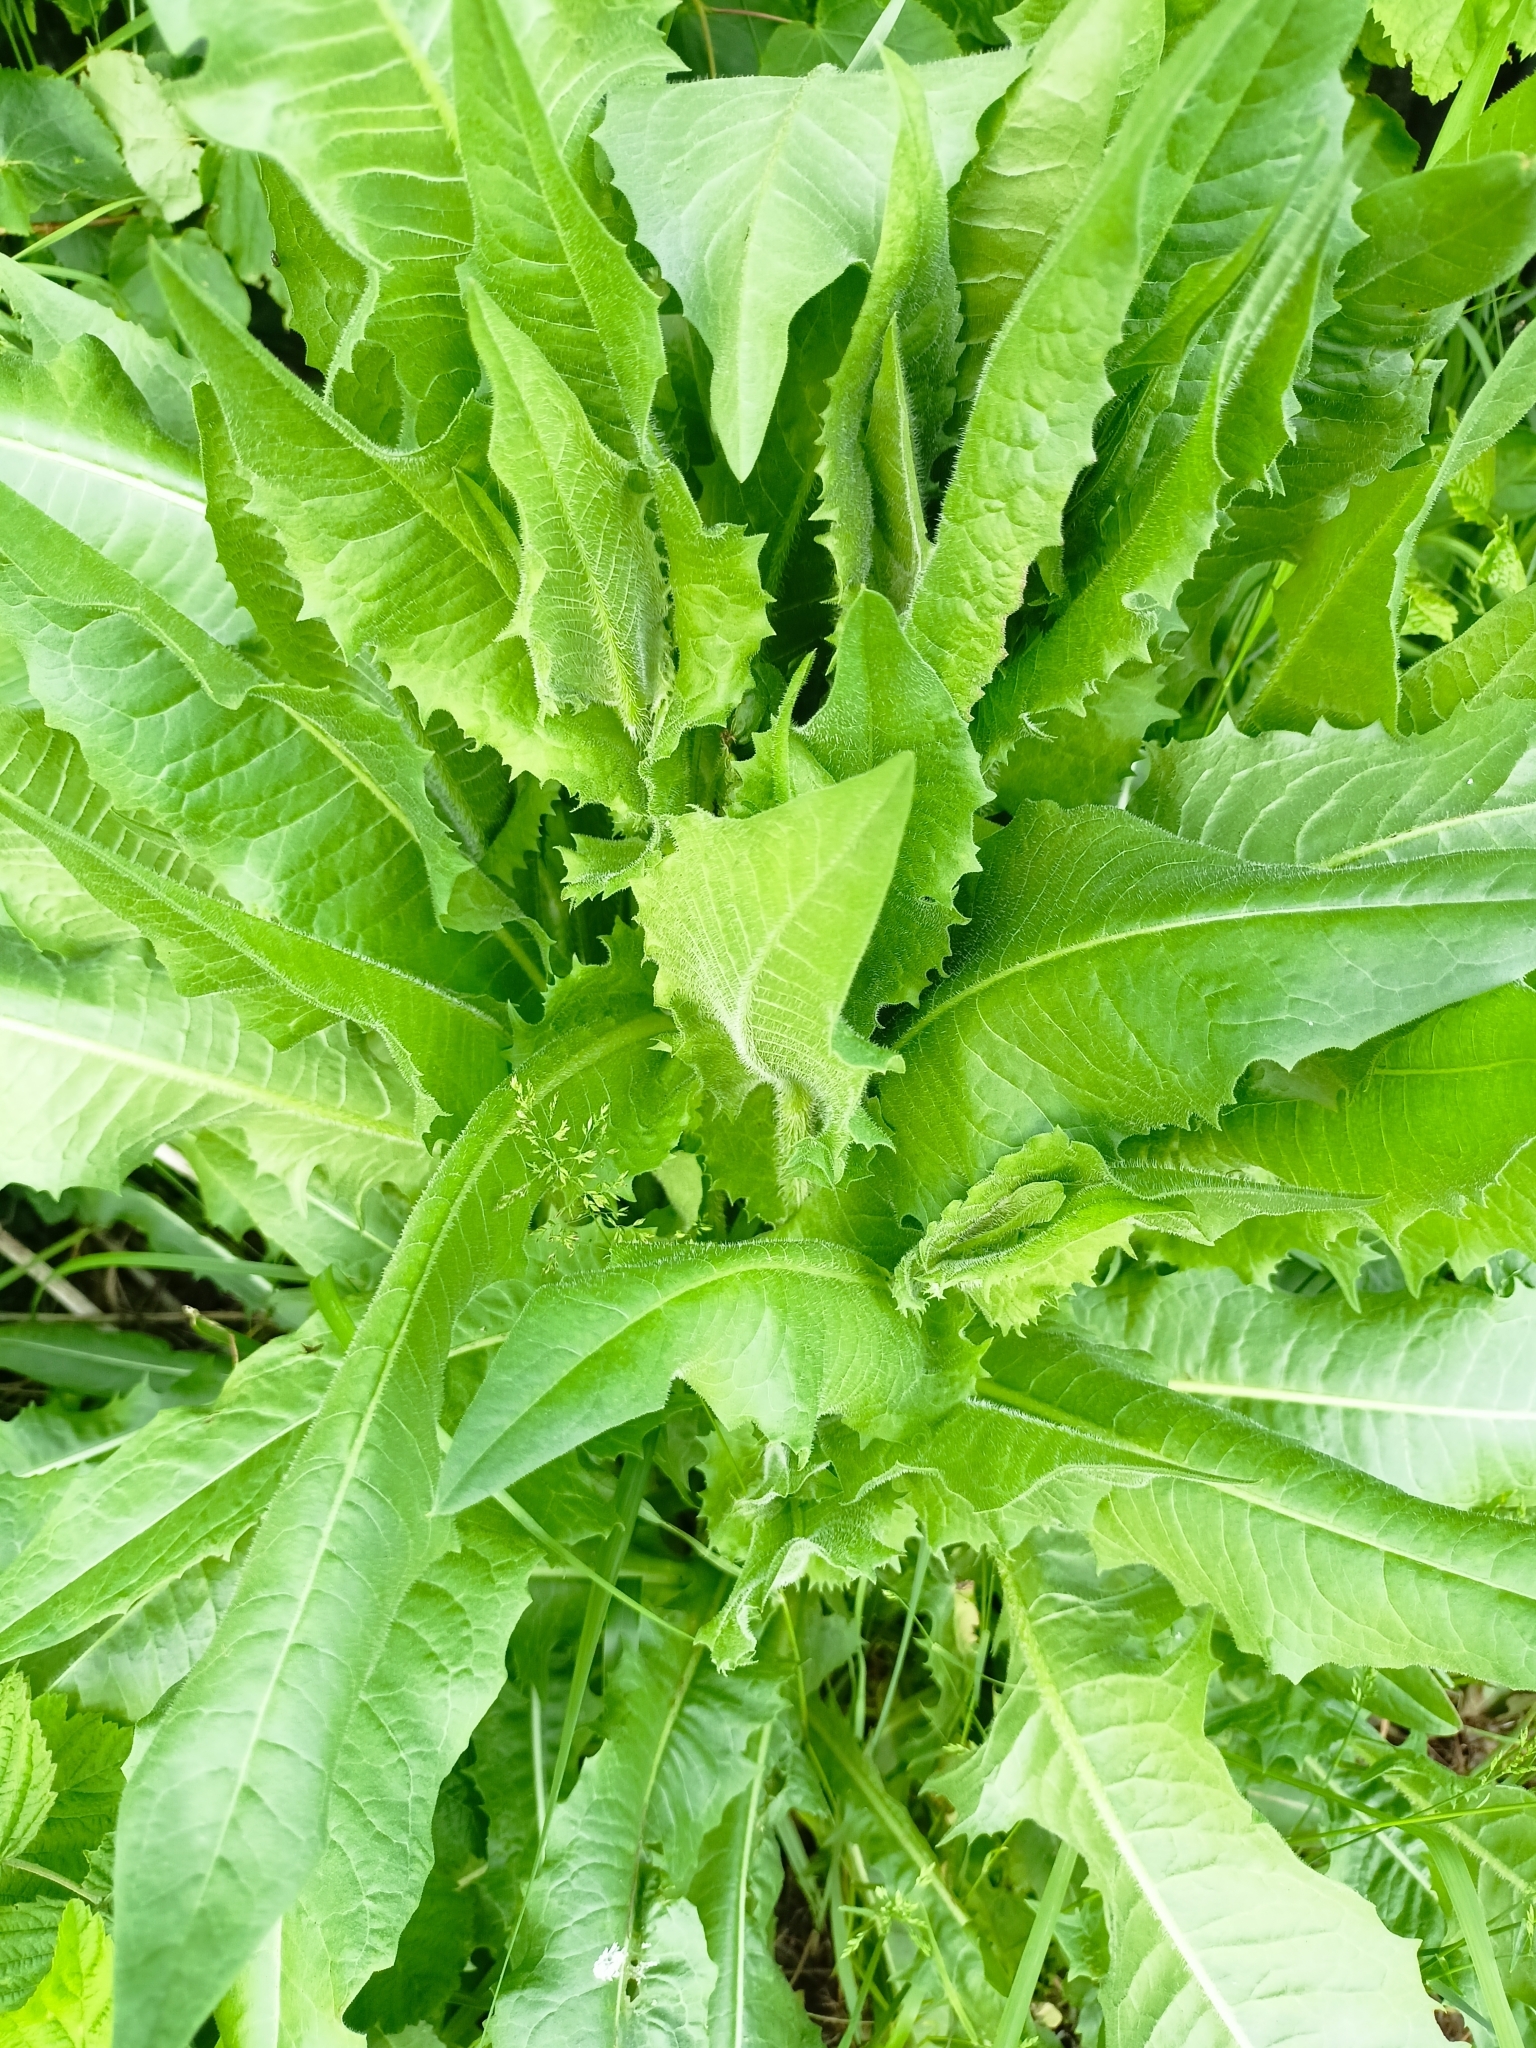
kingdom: Plantae
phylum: Tracheophyta
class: Magnoliopsida
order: Asterales
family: Asteraceae
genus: Cichorium
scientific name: Cichorium intybus
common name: Chicory
